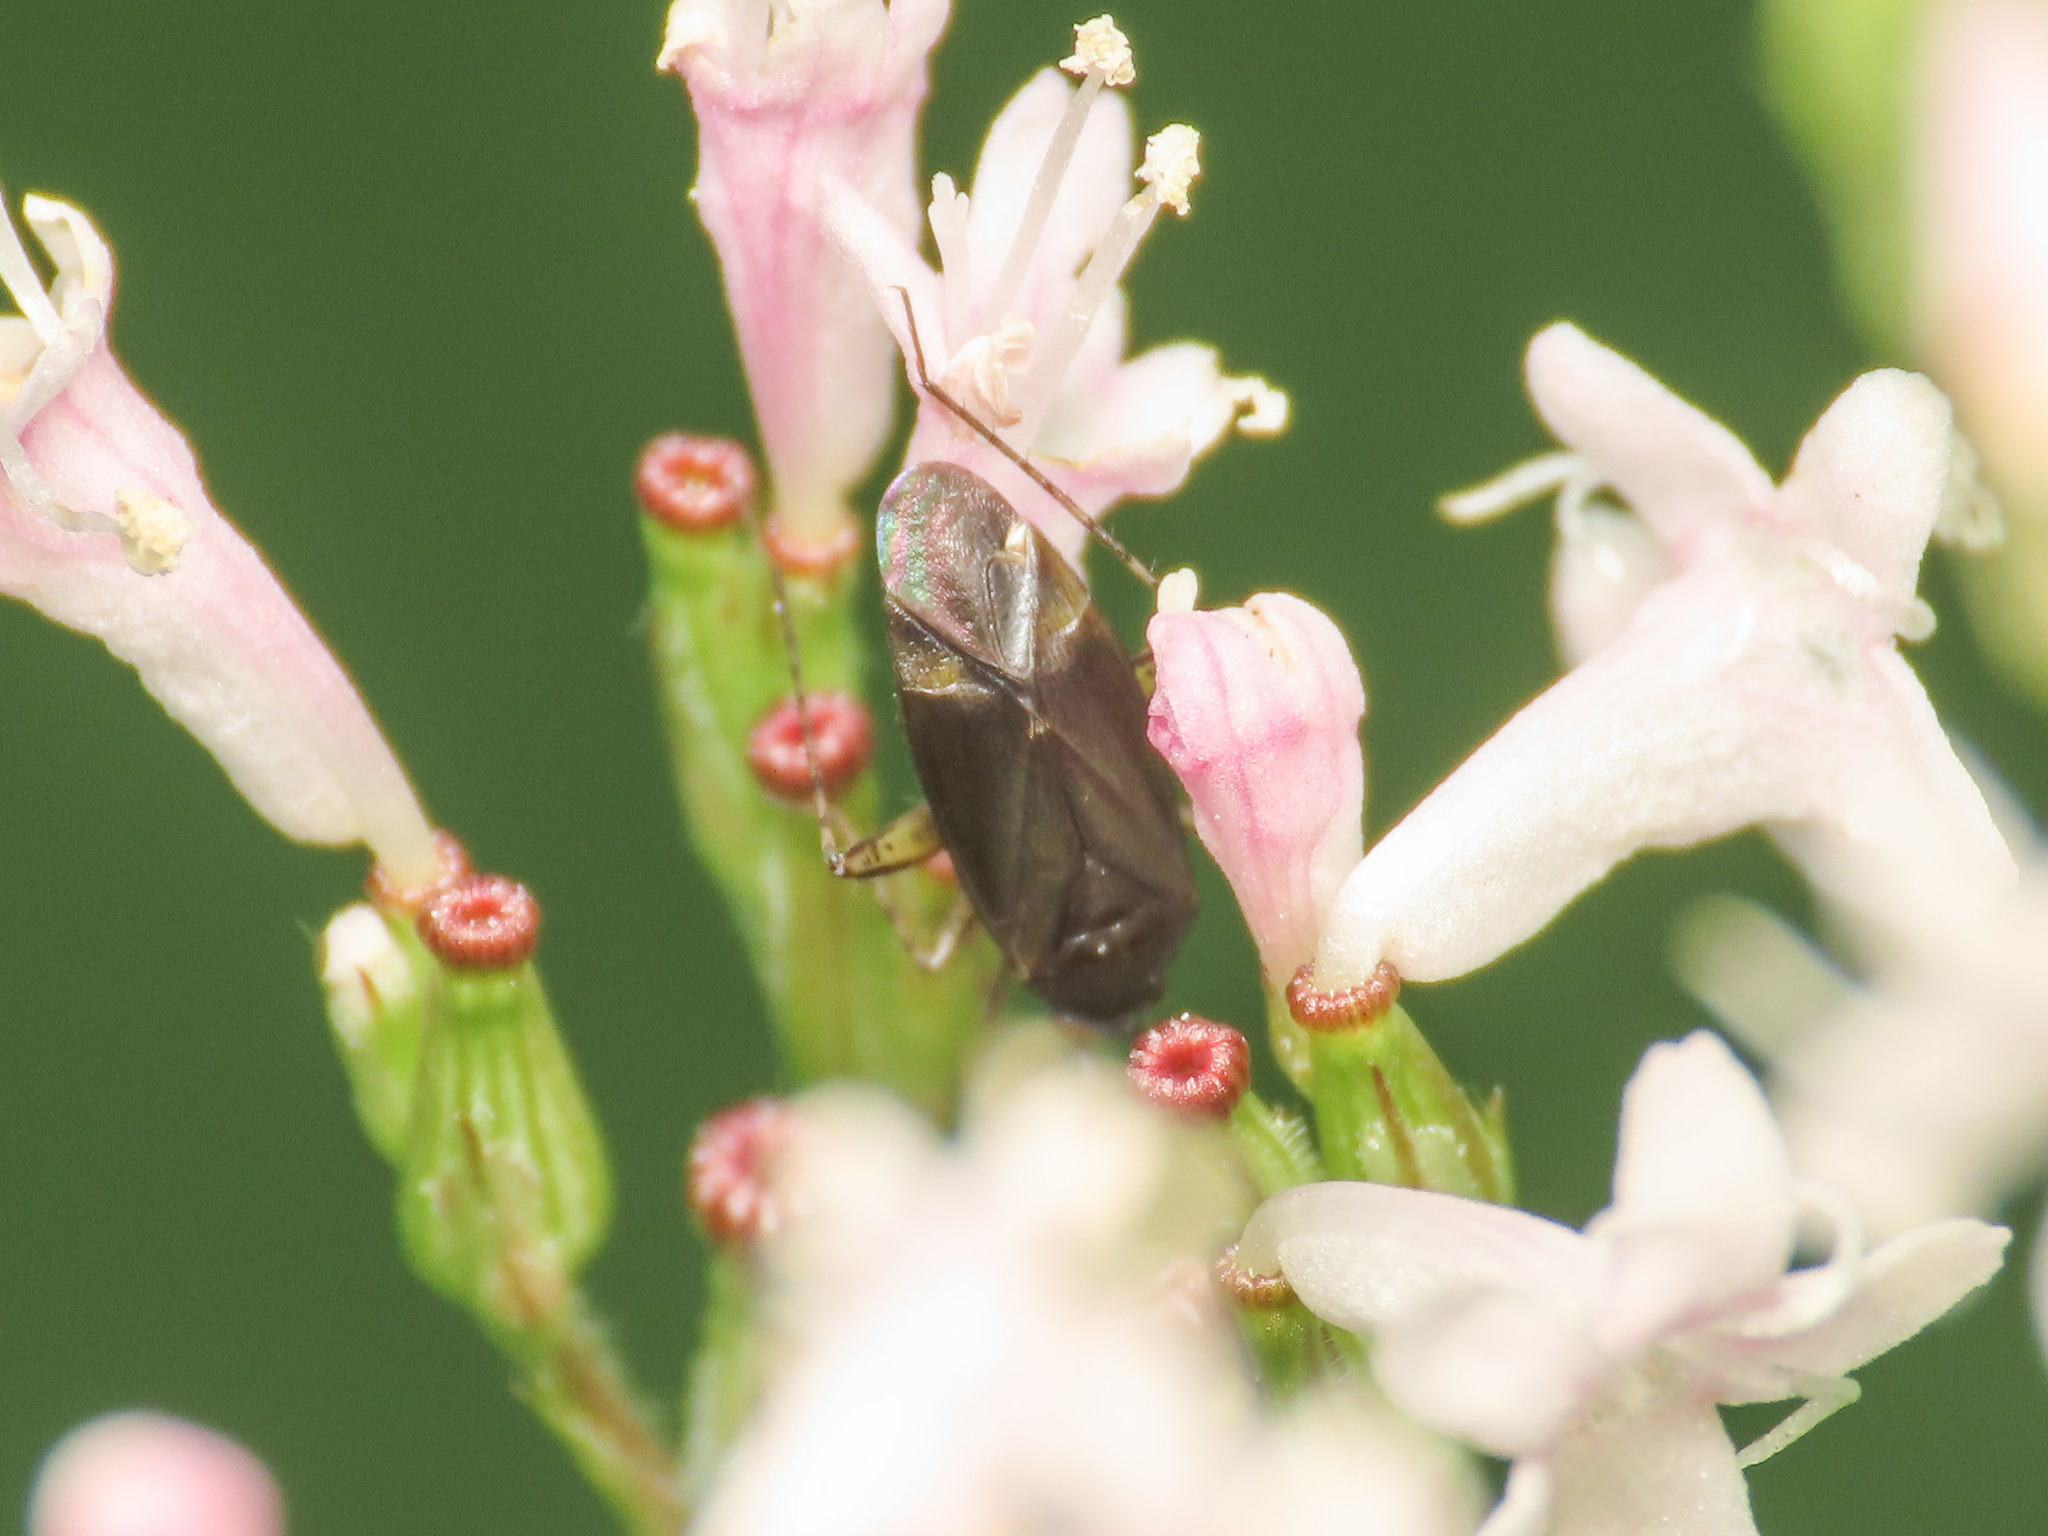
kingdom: Animalia
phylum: Arthropoda
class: Insecta
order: Hemiptera
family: Miridae
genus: Plagiognathus
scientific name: Plagiognathus arbustorum
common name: Plant bug
